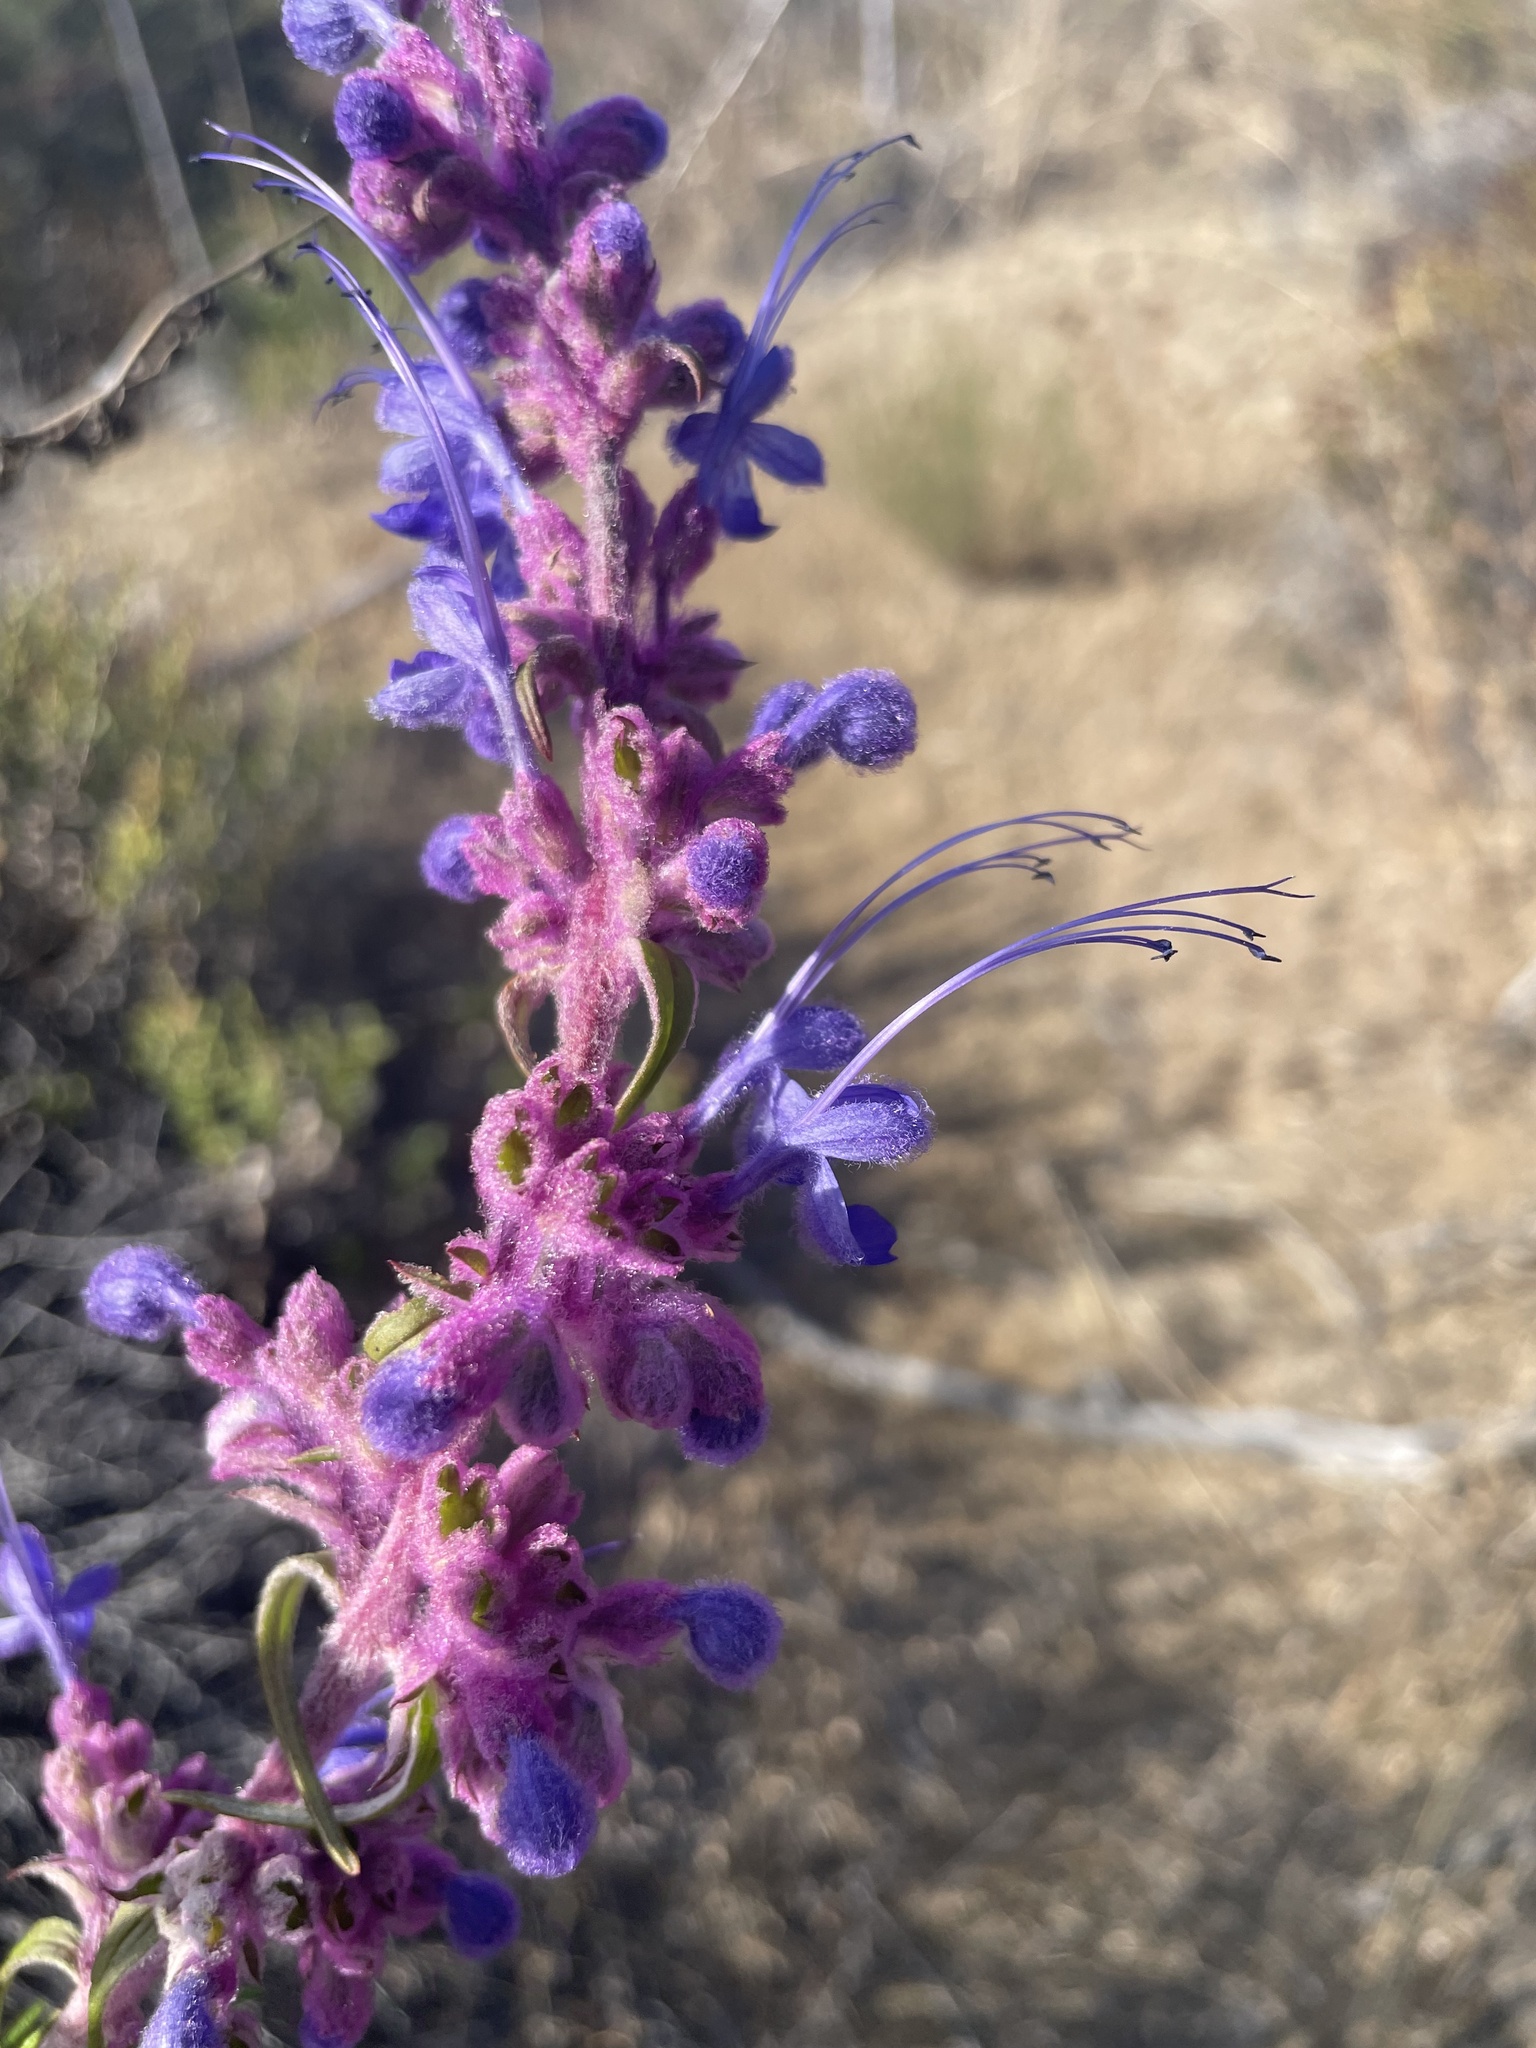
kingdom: Plantae
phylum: Tracheophyta
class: Magnoliopsida
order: Lamiales
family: Lamiaceae
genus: Trichostema
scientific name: Trichostema lanatum
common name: Woolly bluecurls
